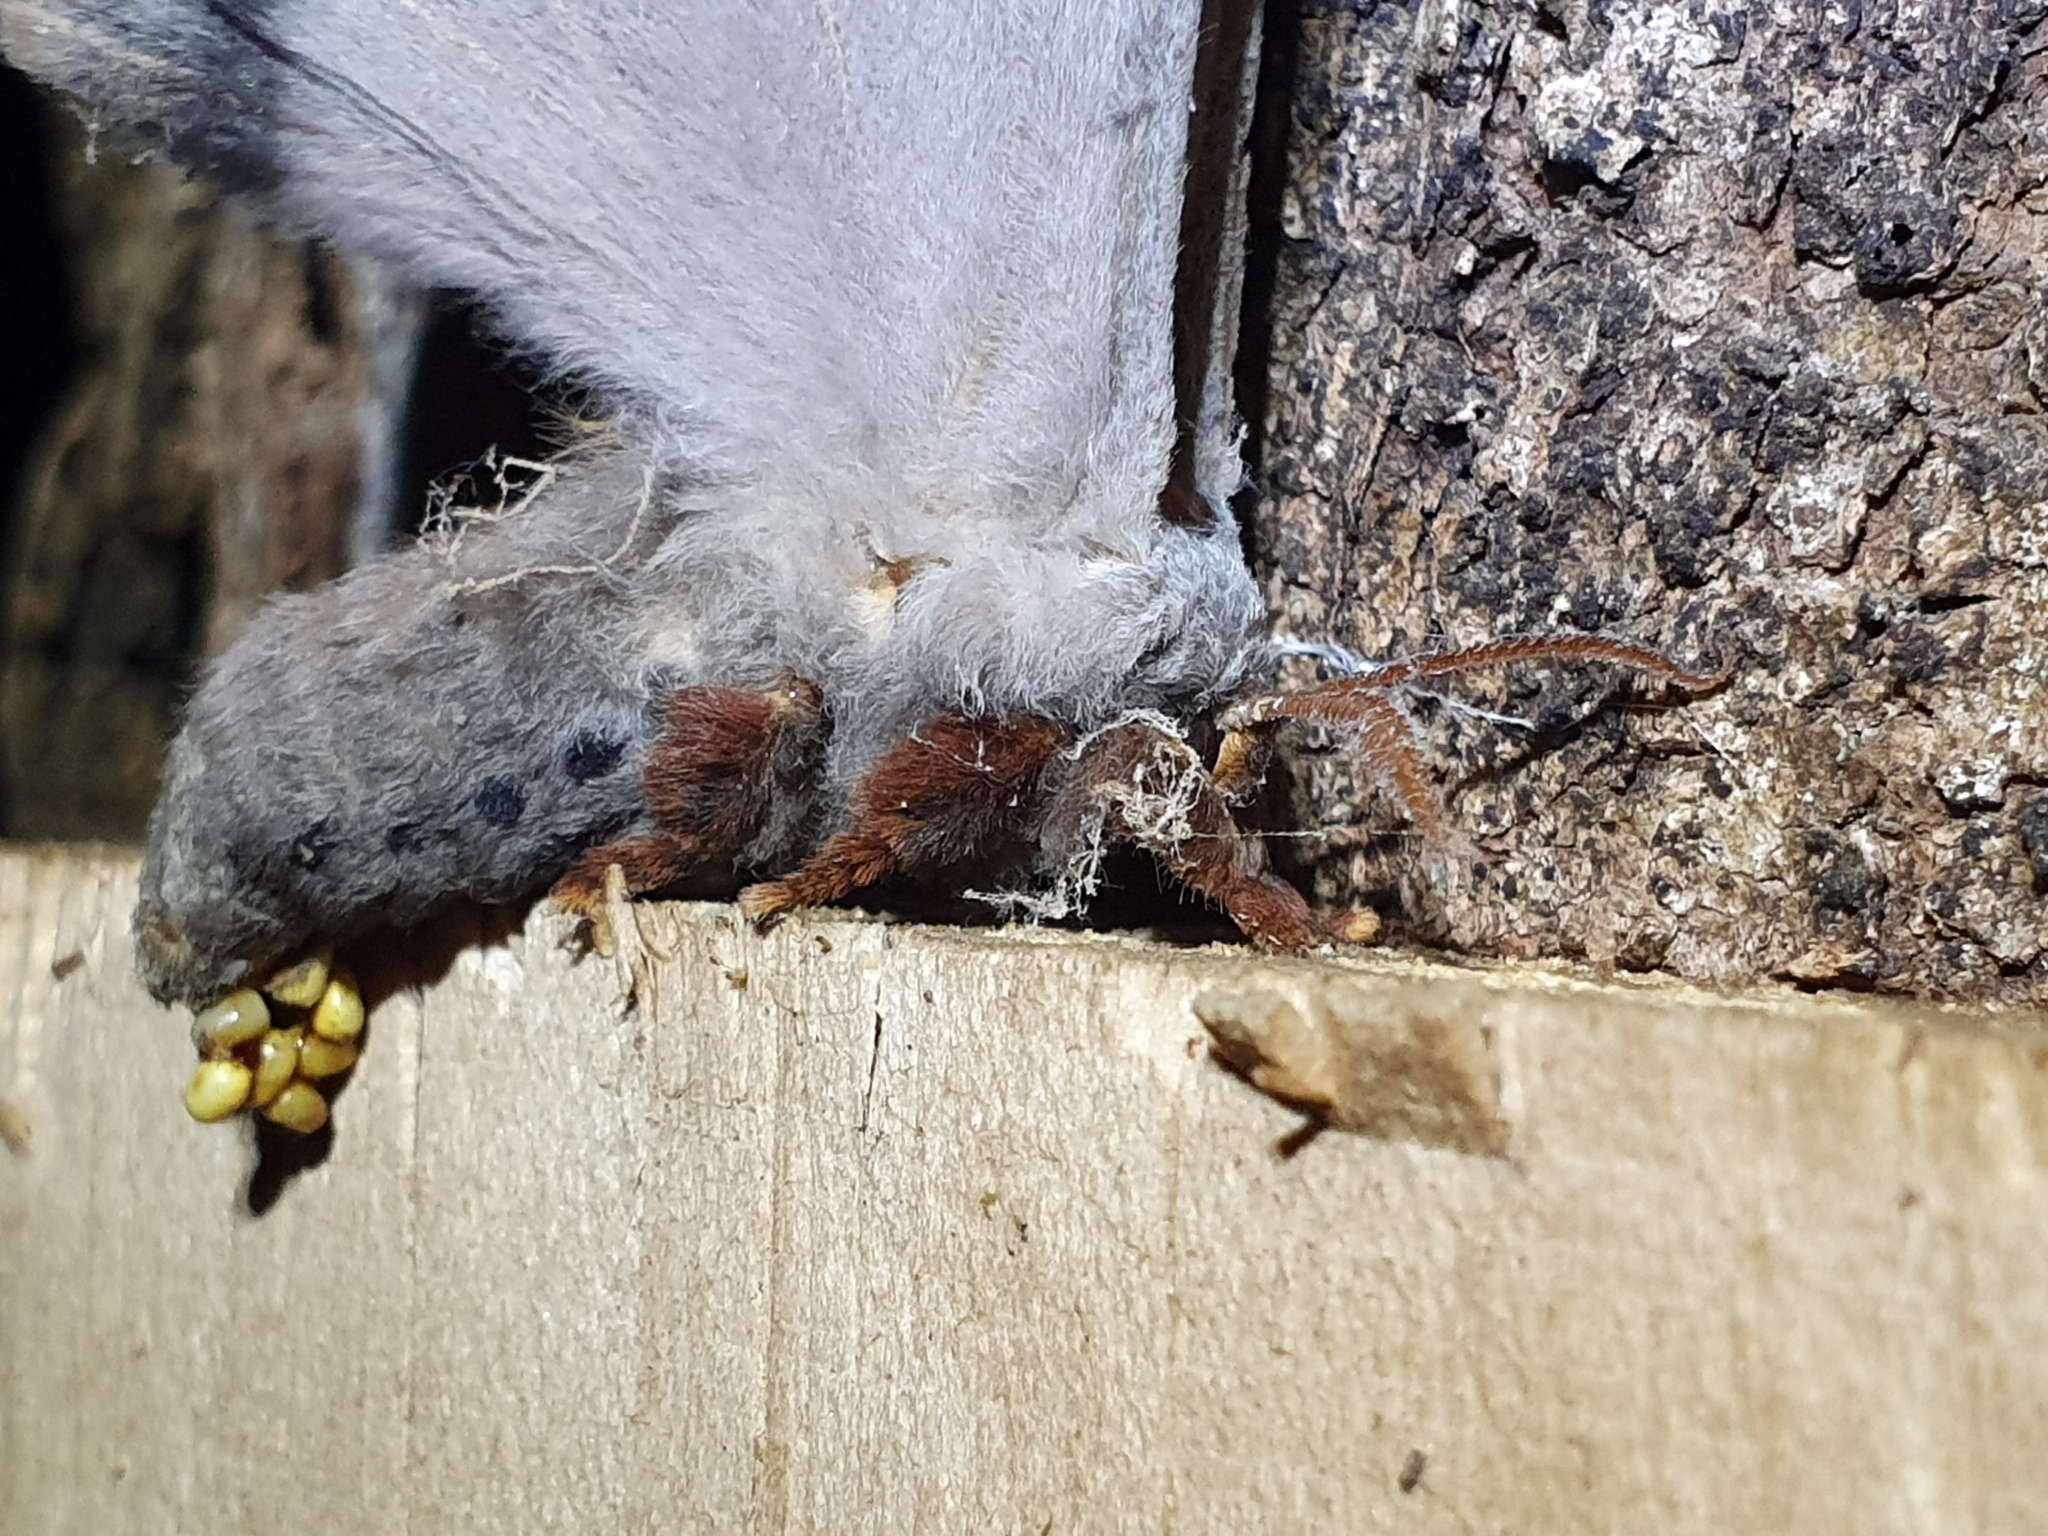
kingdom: Animalia
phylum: Arthropoda
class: Insecta
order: Lepidoptera
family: Saturniidae
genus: Opodiphthera
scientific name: Opodiphthera
